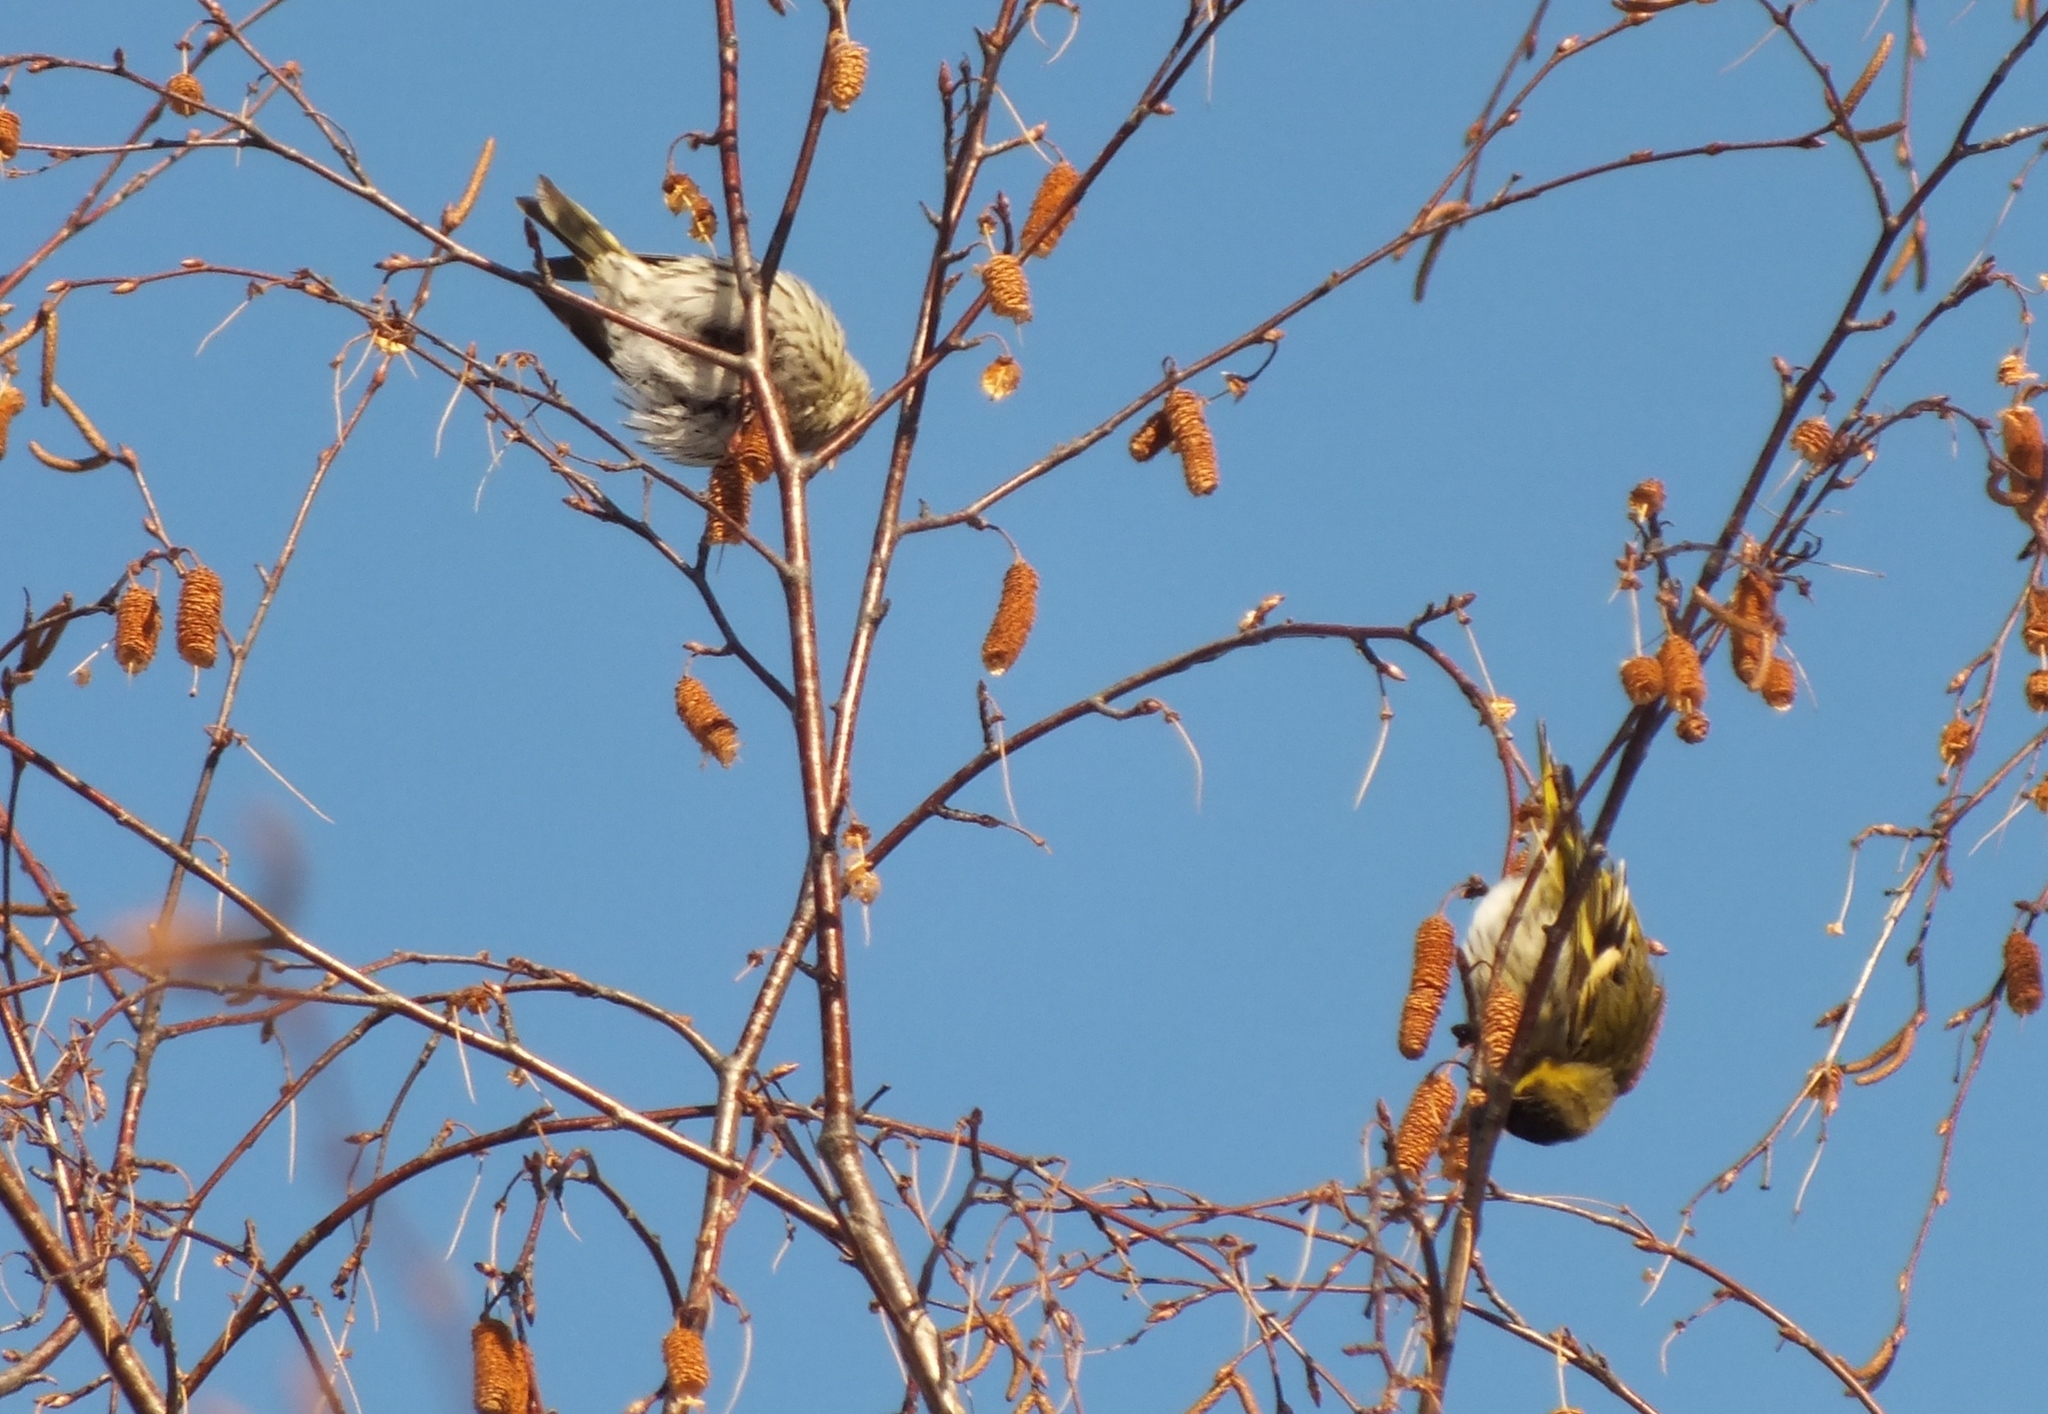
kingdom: Animalia
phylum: Chordata
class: Aves
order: Passeriformes
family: Fringillidae
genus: Spinus
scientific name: Spinus spinus
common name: Eurasian siskin
